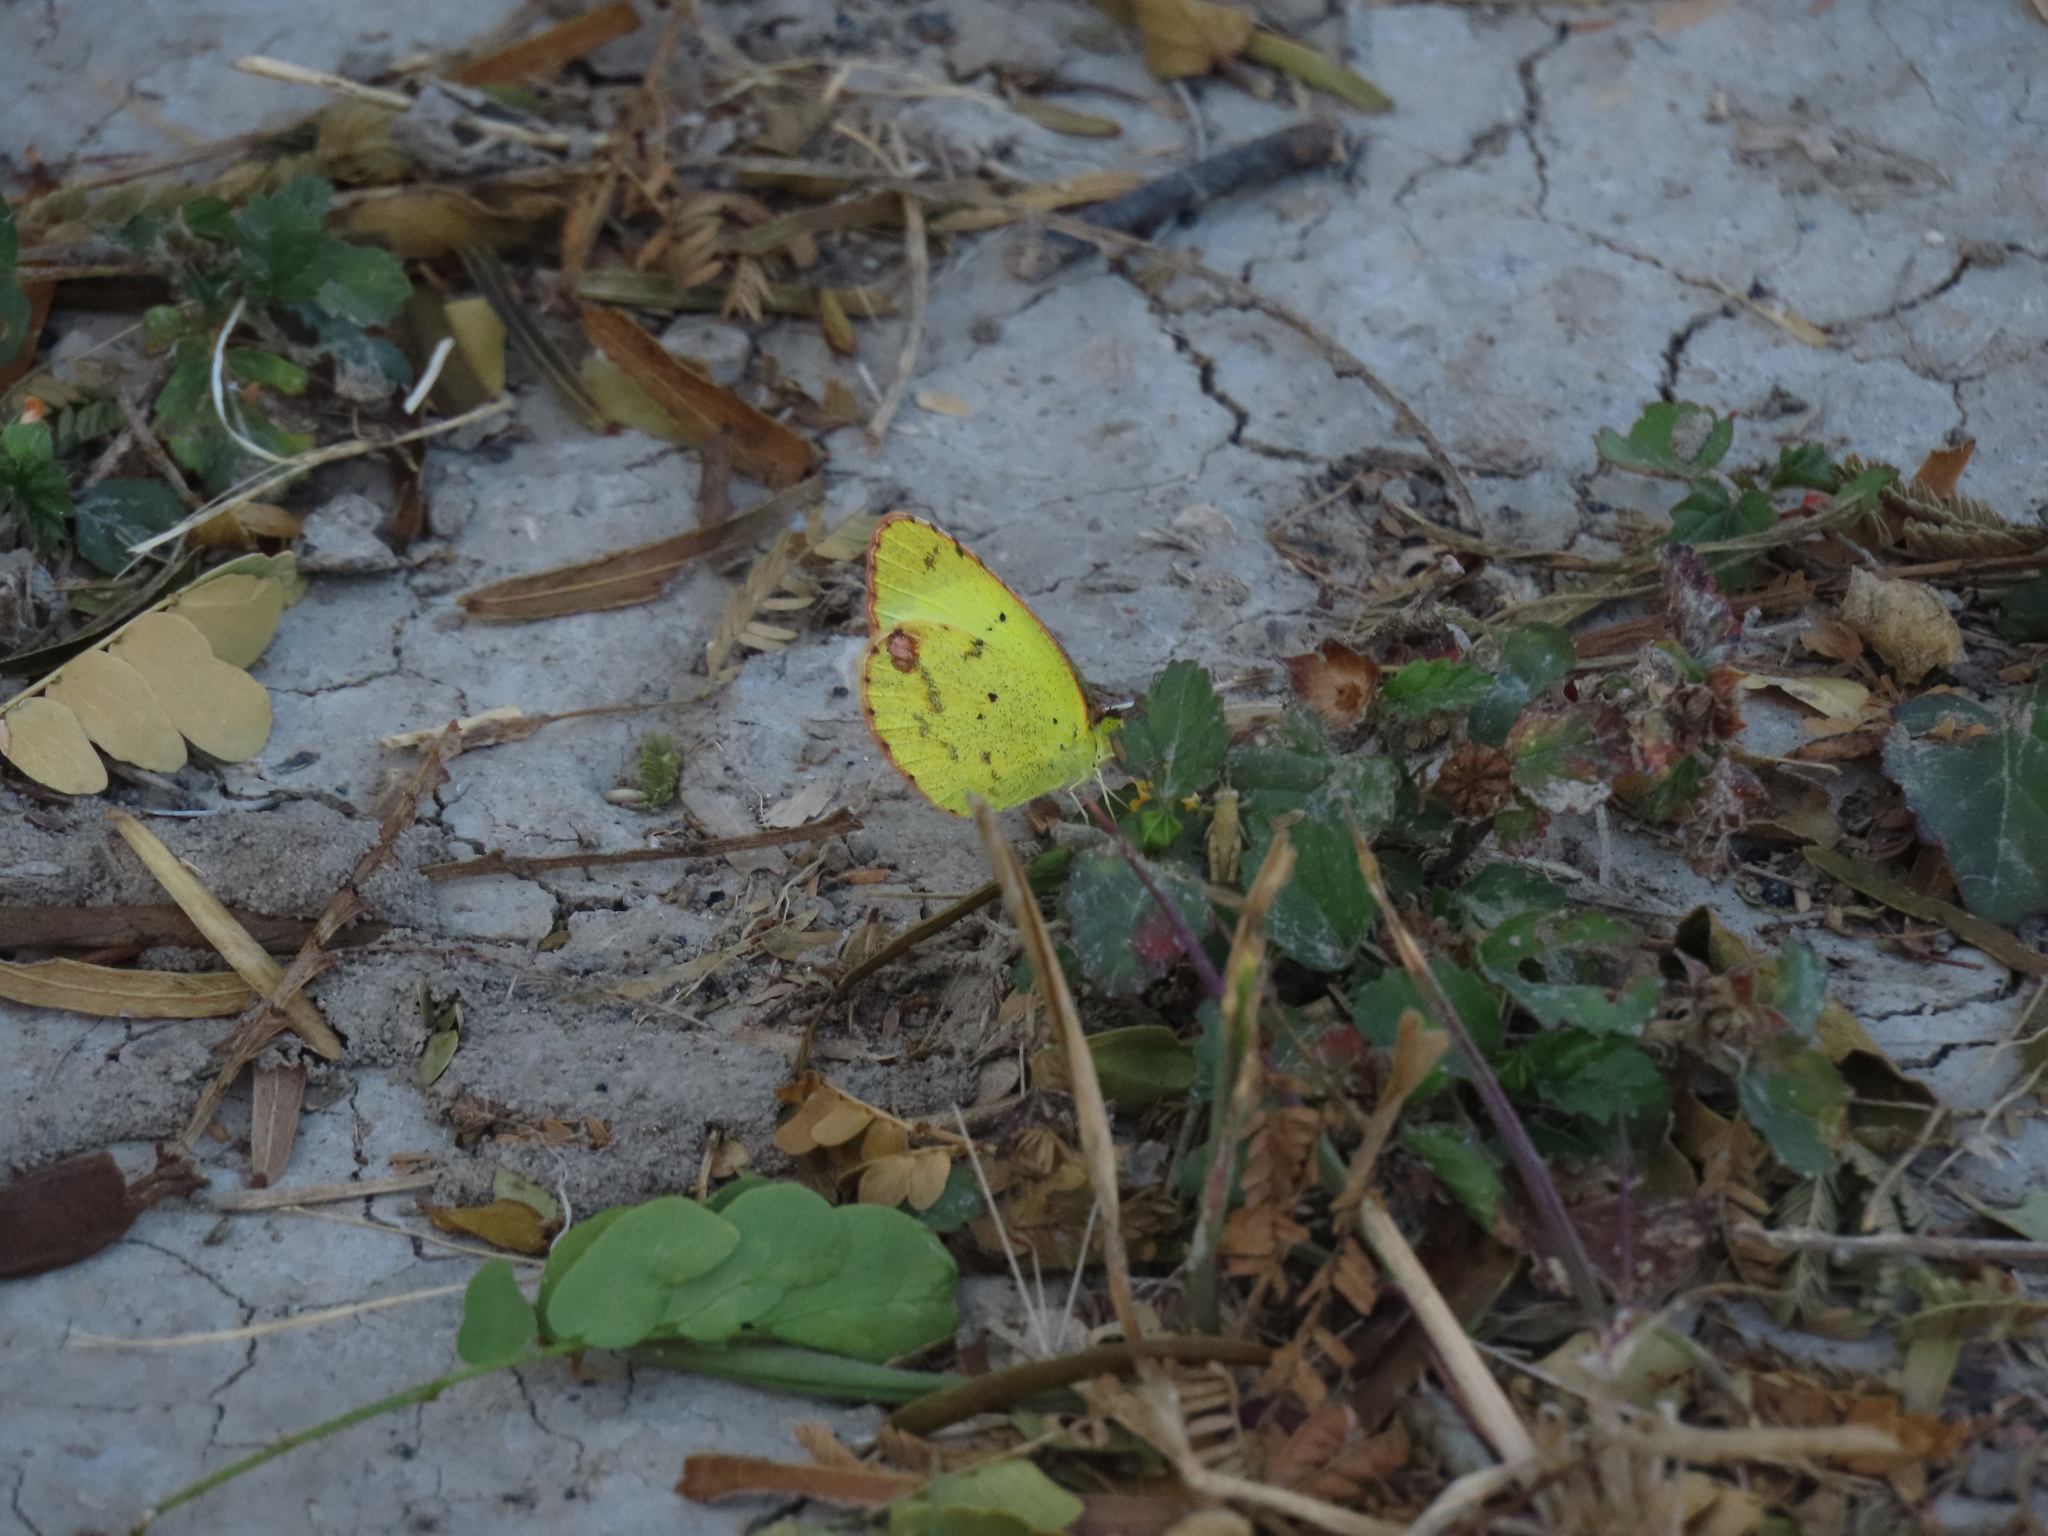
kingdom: Animalia
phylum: Arthropoda
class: Insecta
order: Lepidoptera
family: Pieridae
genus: Pyrisitia
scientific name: Pyrisitia lisa
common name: Little yellow
